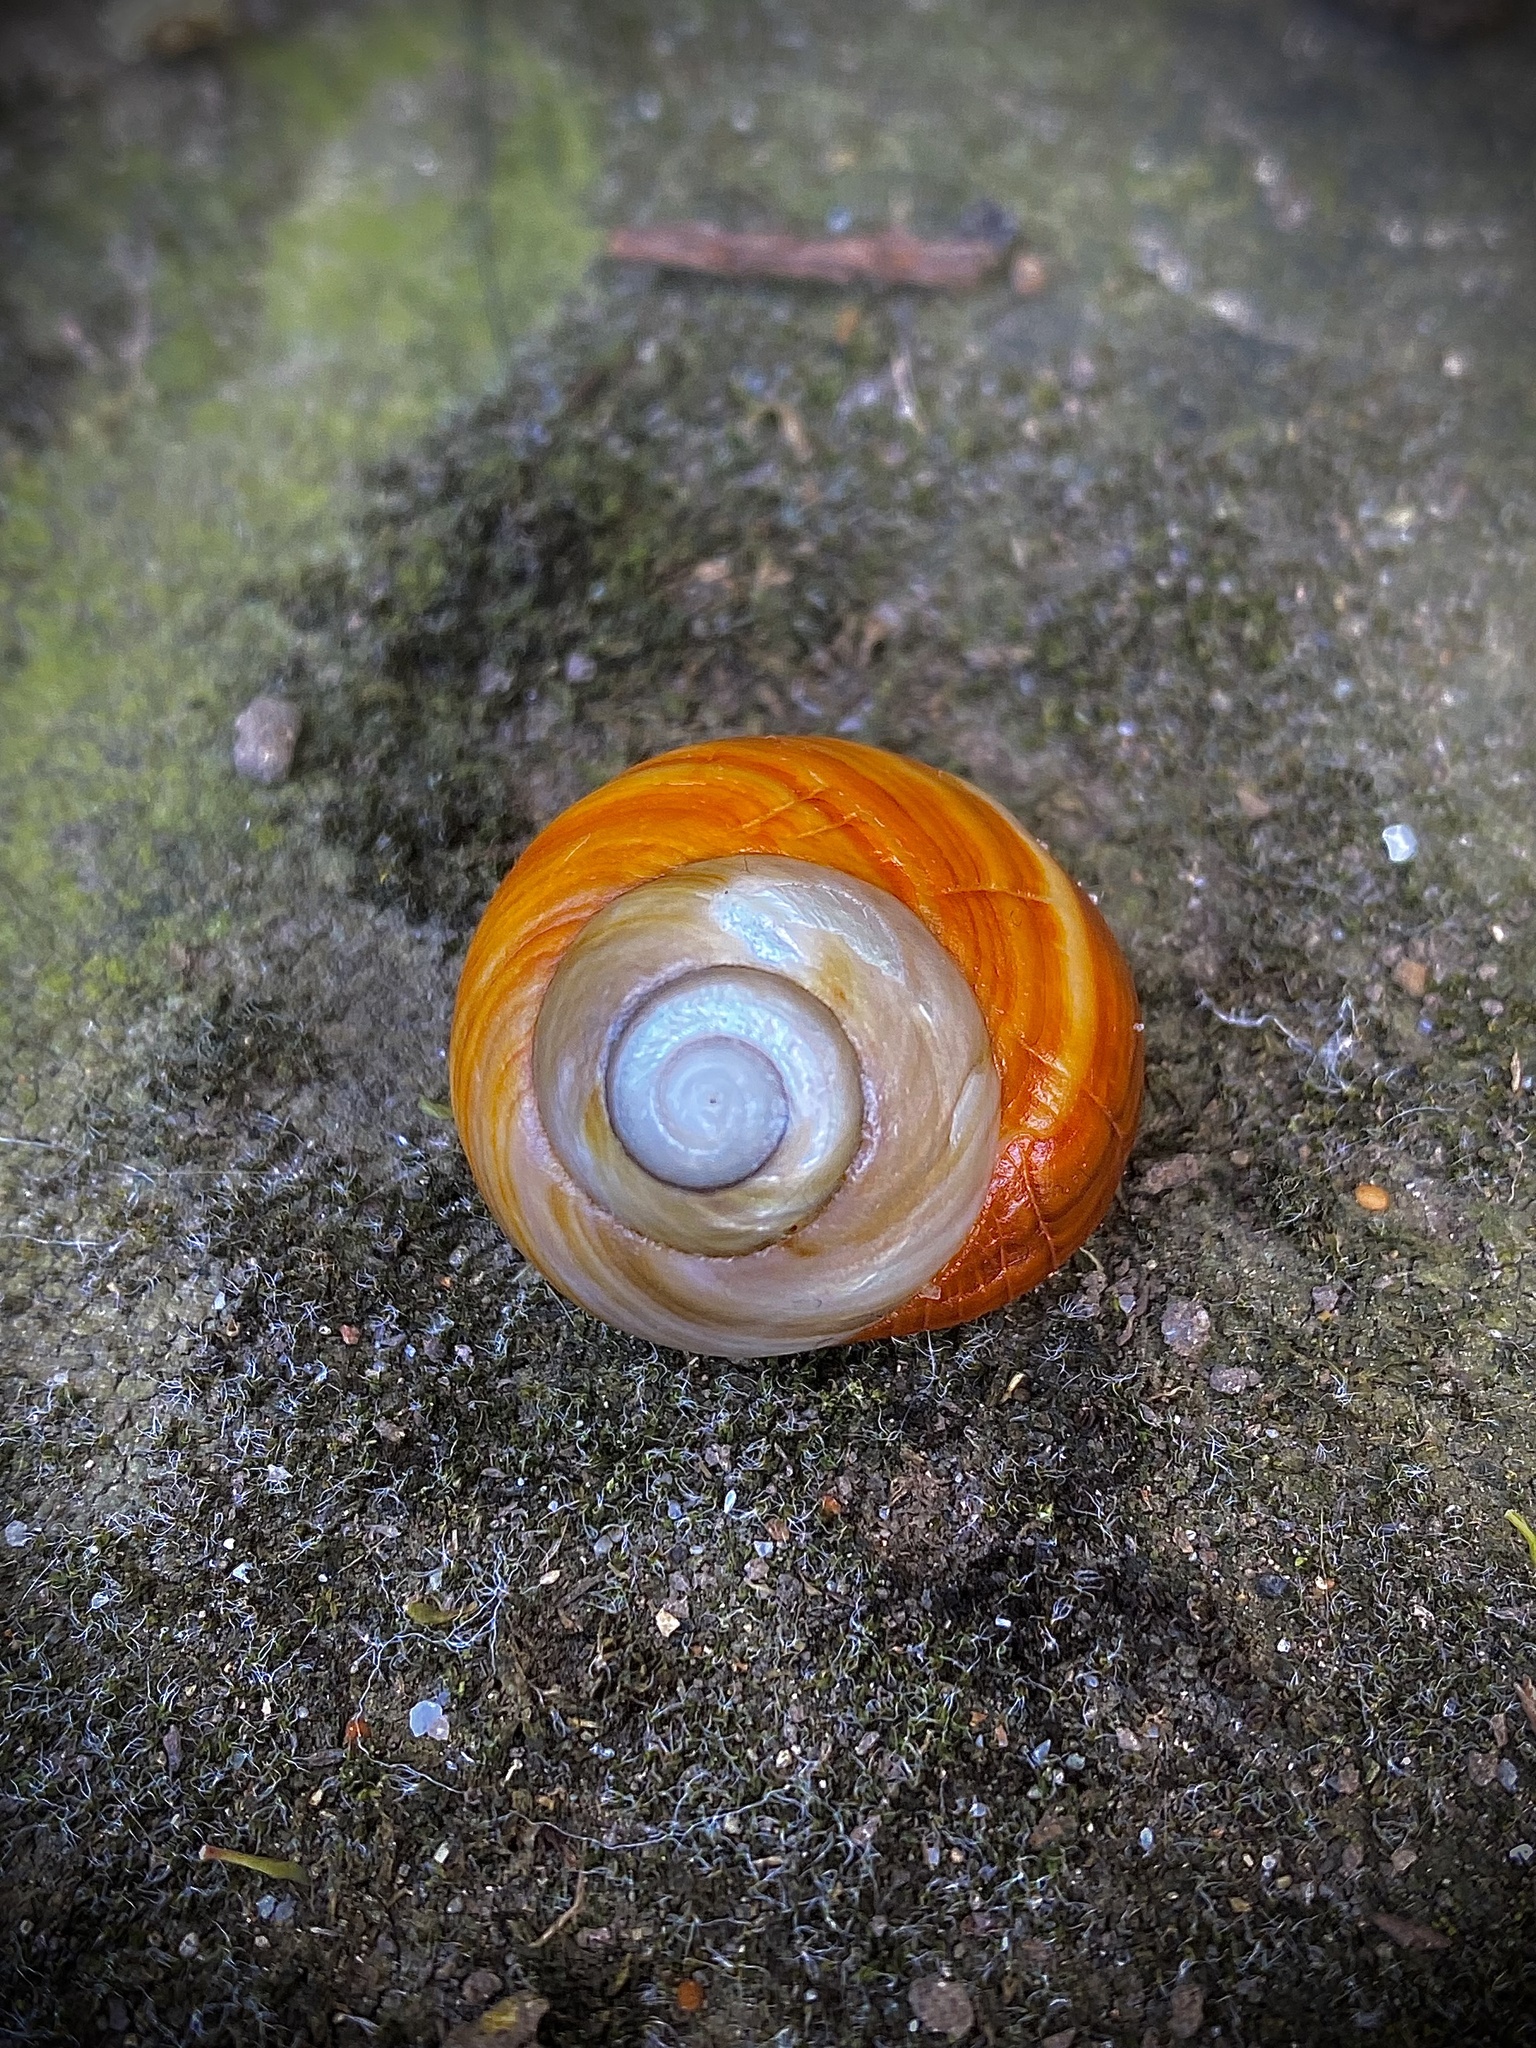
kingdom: Animalia
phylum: Mollusca
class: Gastropoda
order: Trochida
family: Tegulidae
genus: Tegula
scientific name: Tegula brunnea
